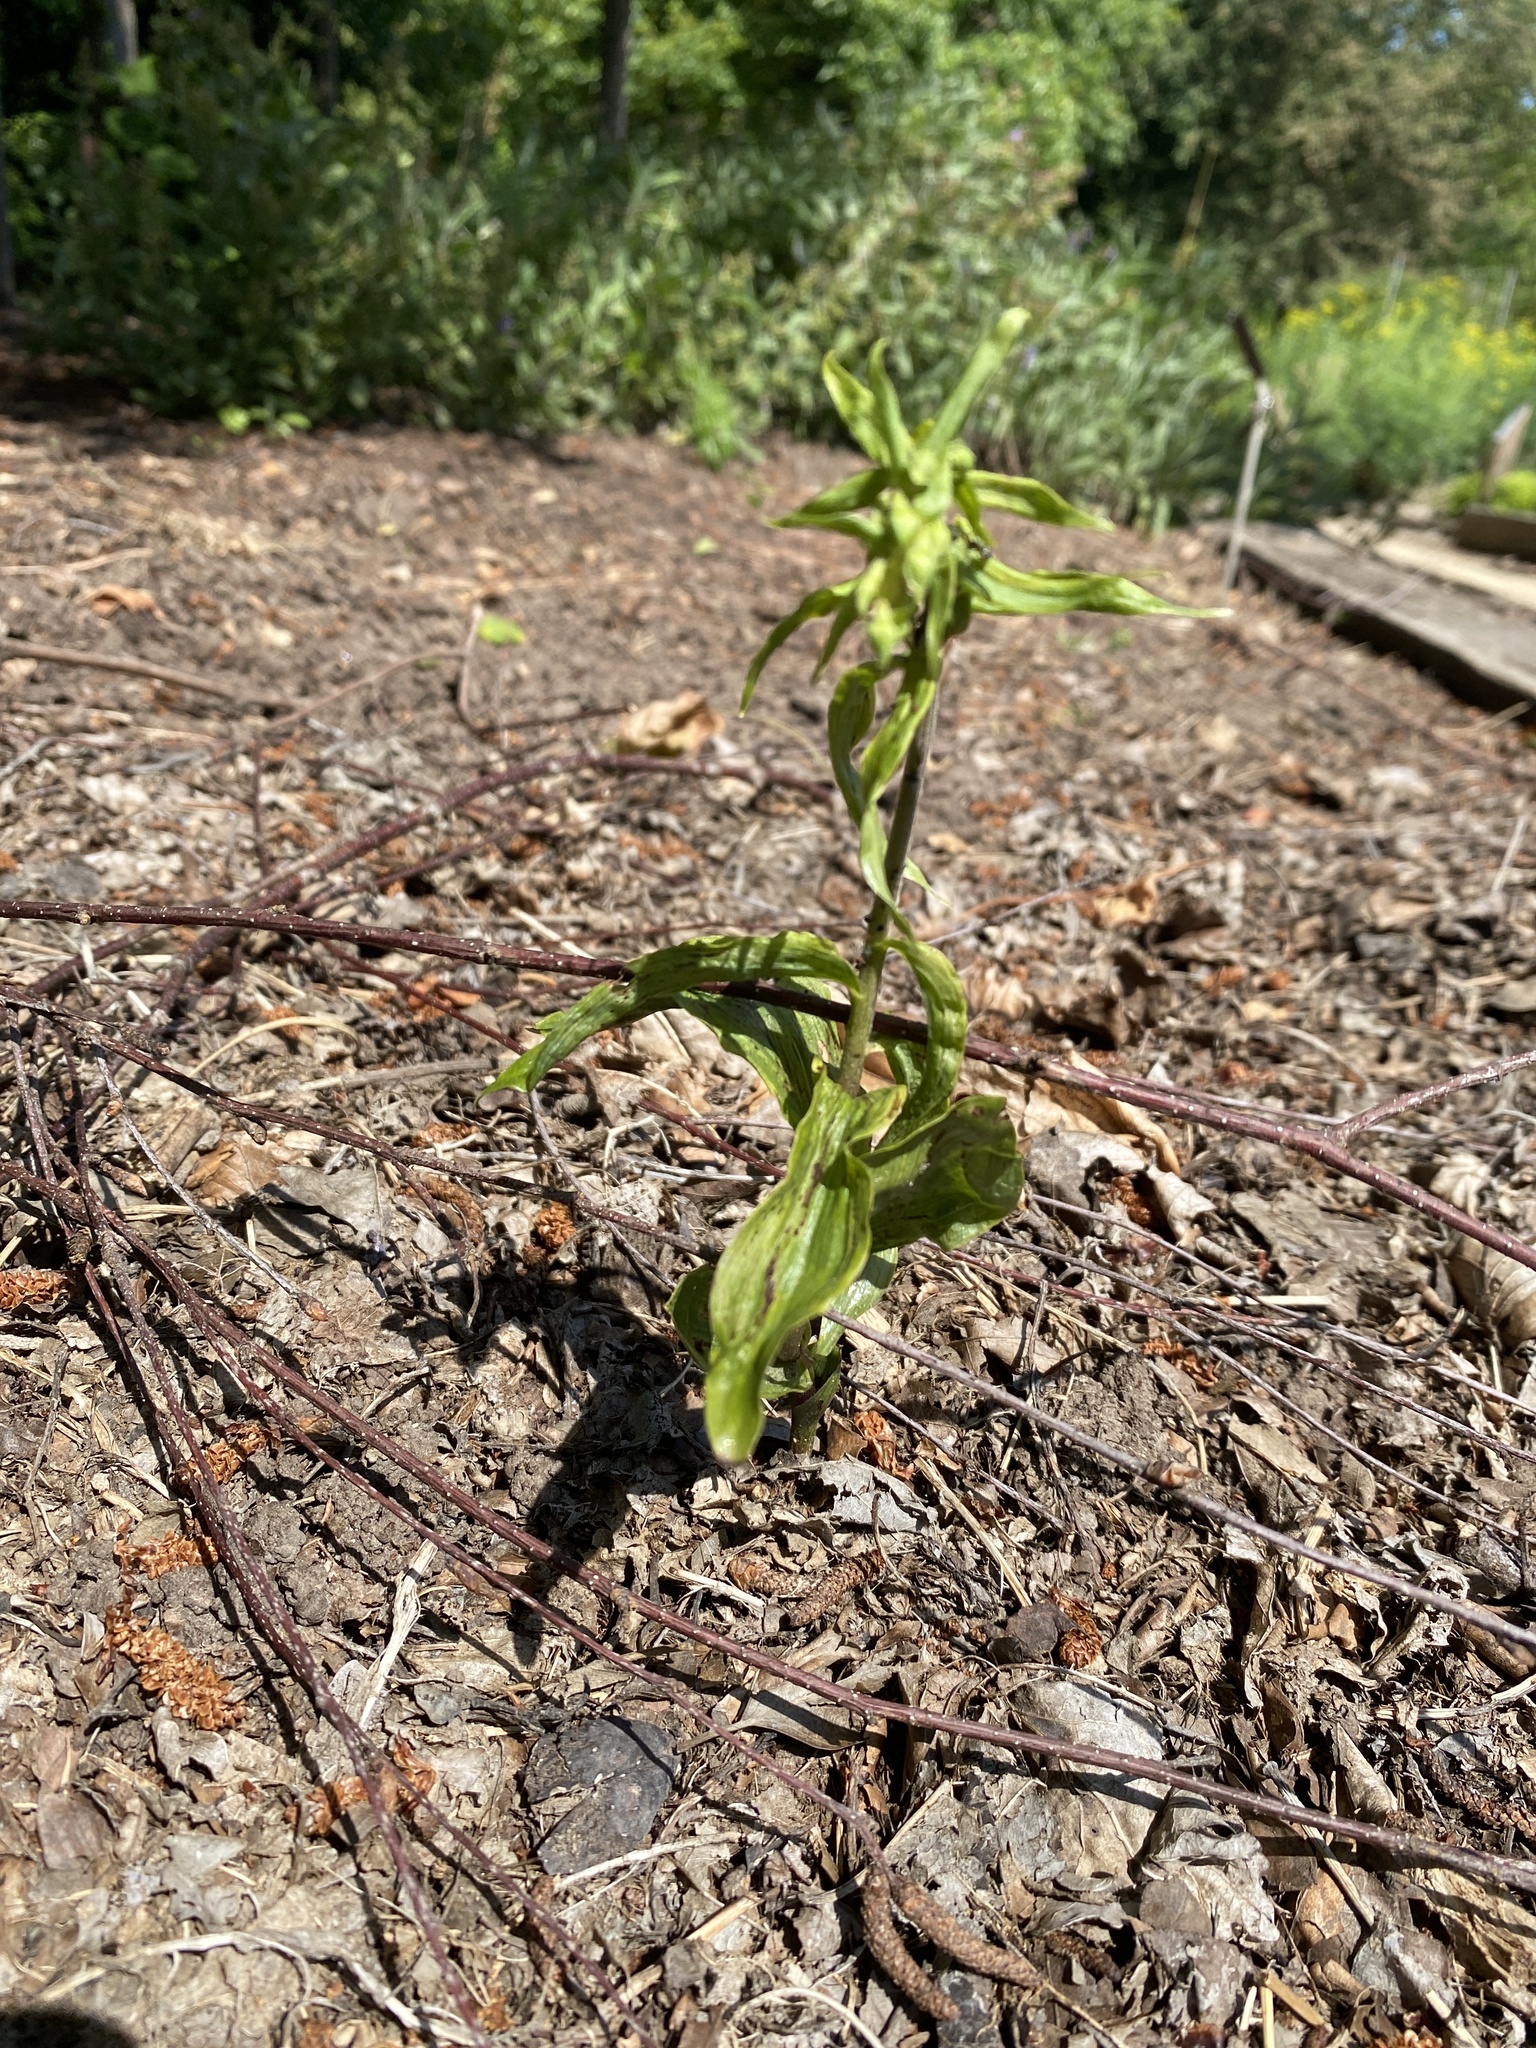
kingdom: Plantae
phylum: Tracheophyta
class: Liliopsida
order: Asparagales
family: Orchidaceae
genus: Epipactis
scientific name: Epipactis helleborine
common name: Broad-leaved helleborine
